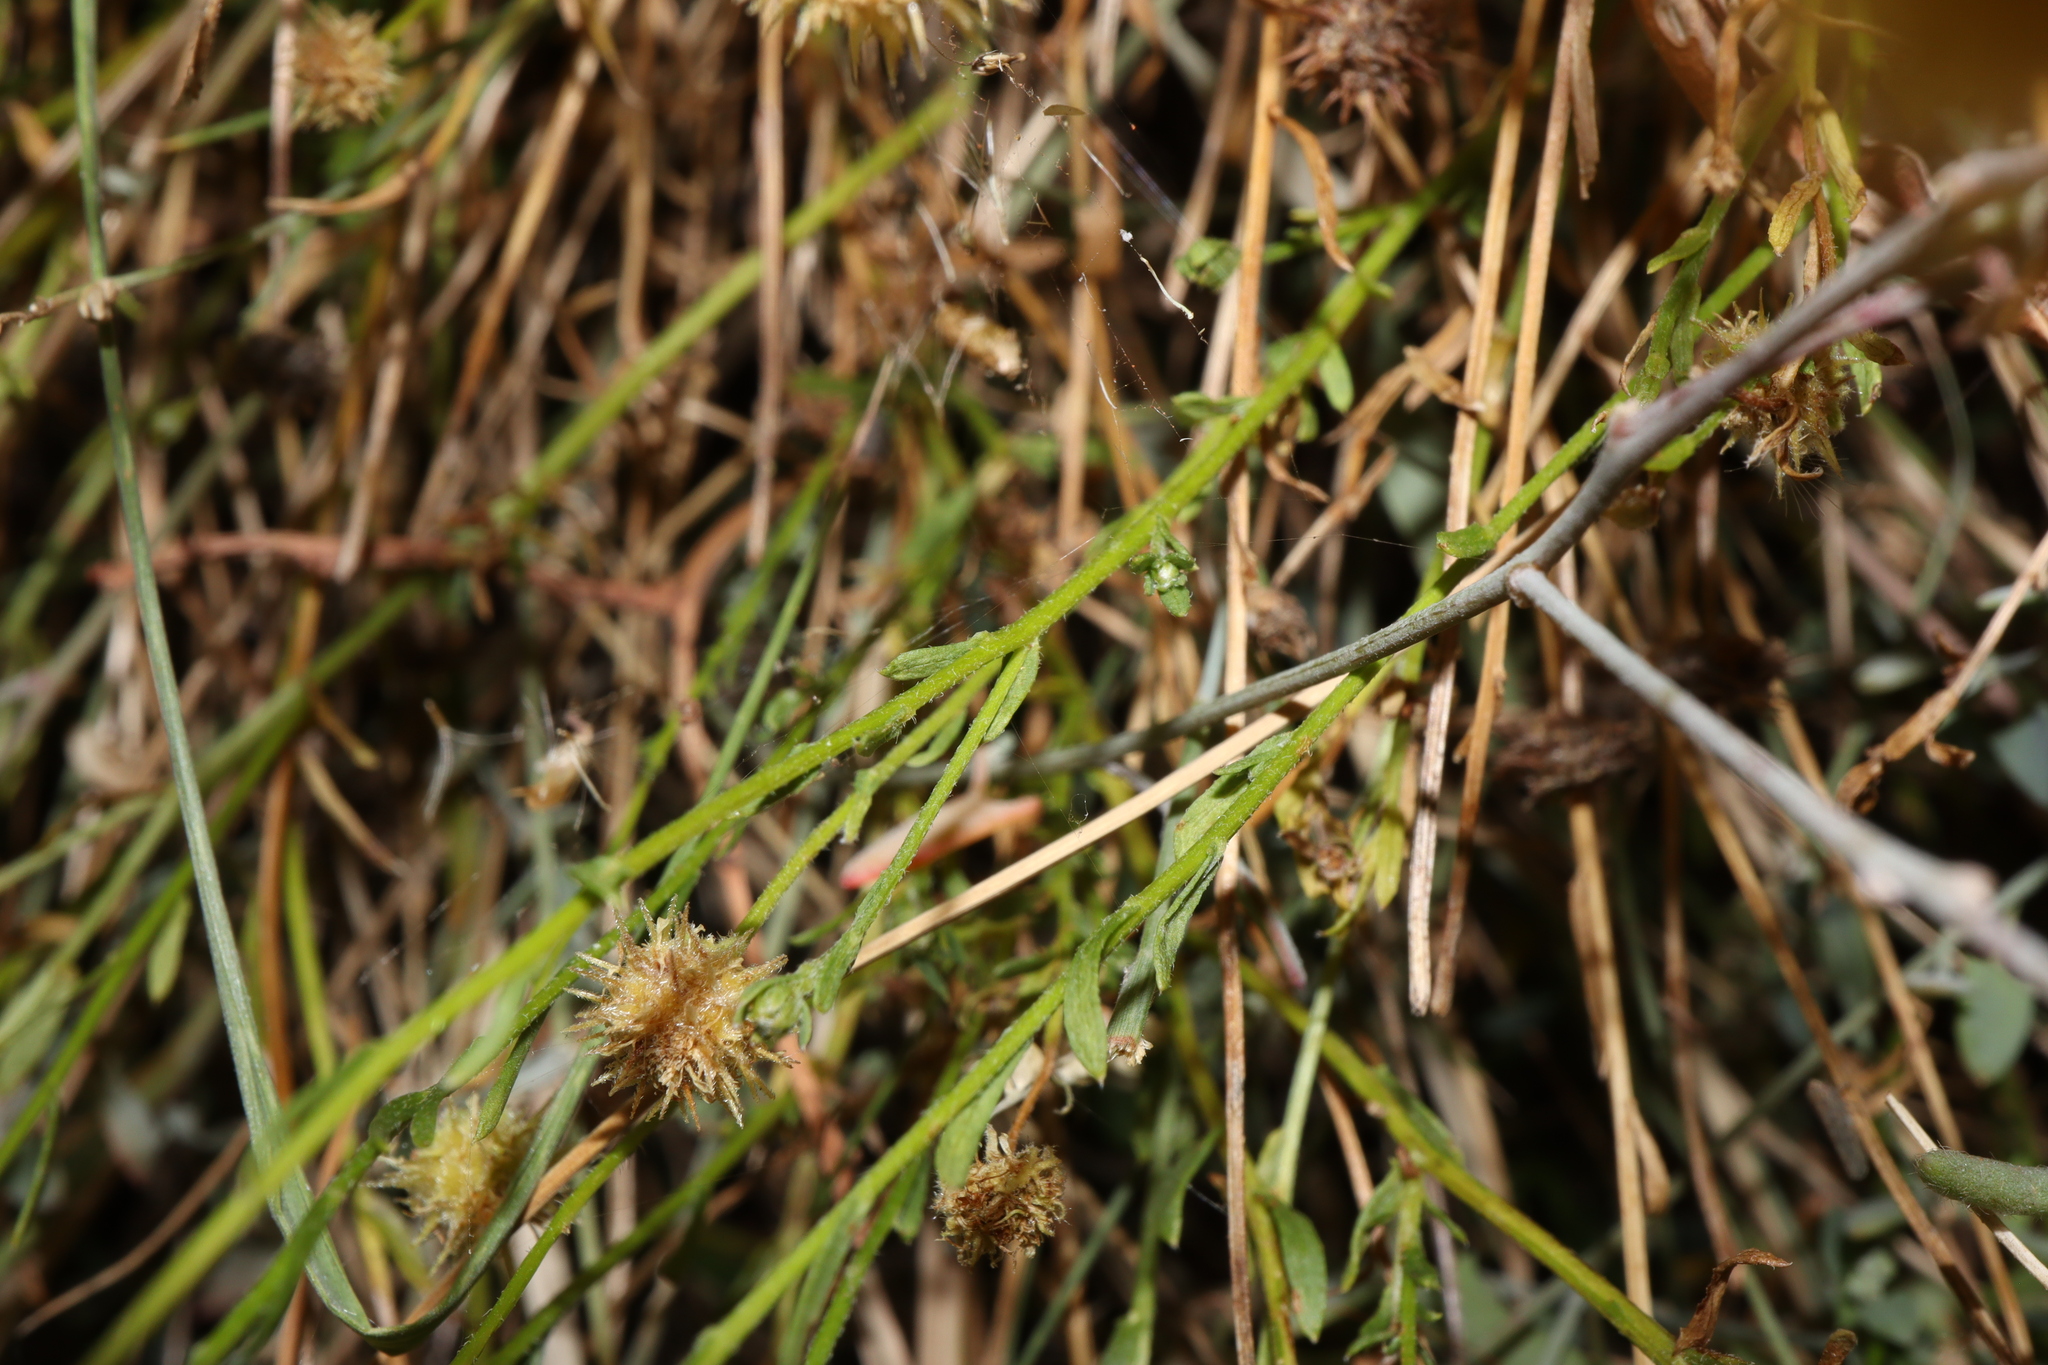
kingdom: Plantae
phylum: Tracheophyta
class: Magnoliopsida
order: Asterales
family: Asteraceae
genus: Calotis
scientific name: Calotis lappulacea
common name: Bur daisy
